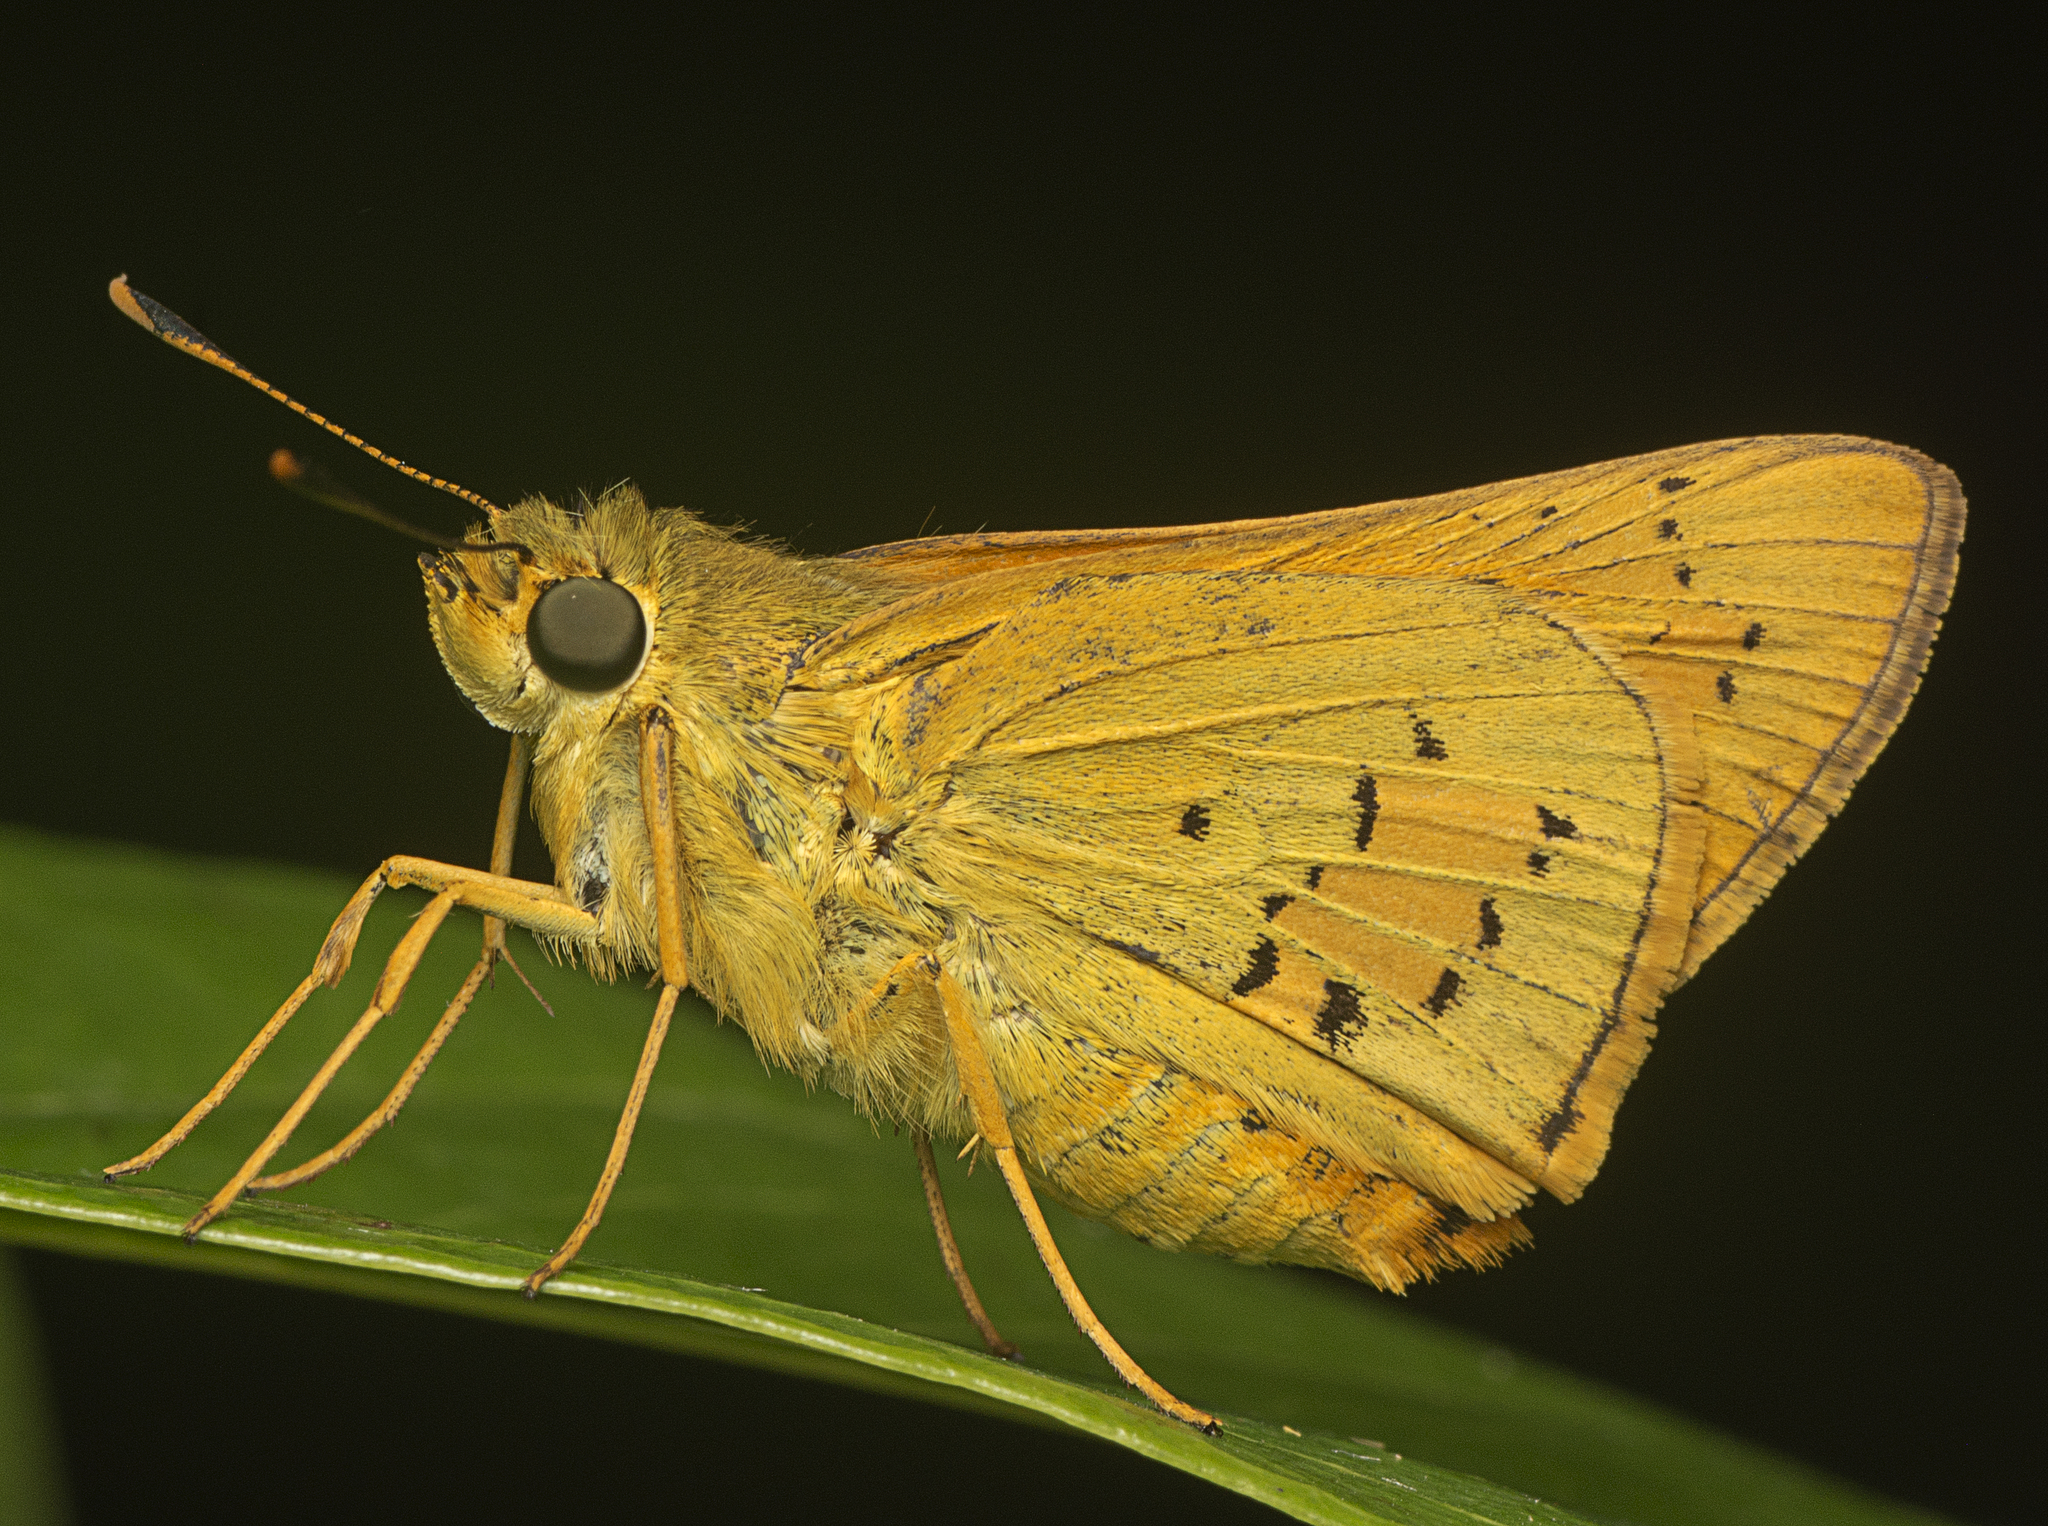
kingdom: Animalia
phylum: Arthropoda
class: Insecta
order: Lepidoptera
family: Hesperiidae
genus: Cephrenes
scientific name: Cephrenes trichopepla
